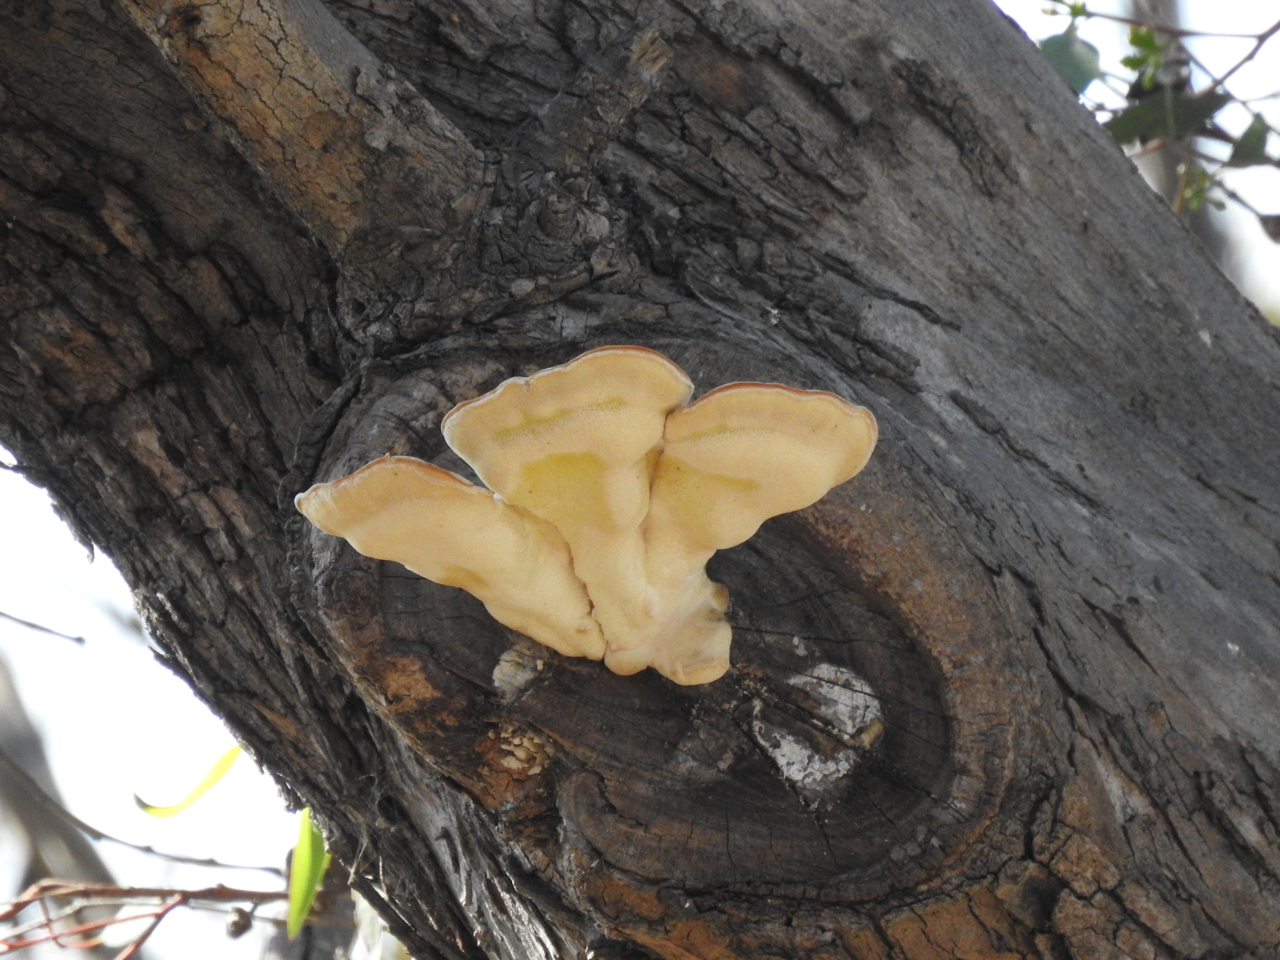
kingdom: Fungi
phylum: Basidiomycota
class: Agaricomycetes
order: Polyporales
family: Laetiporaceae
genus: Laetiporus
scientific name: Laetiporus gilbertsonii
